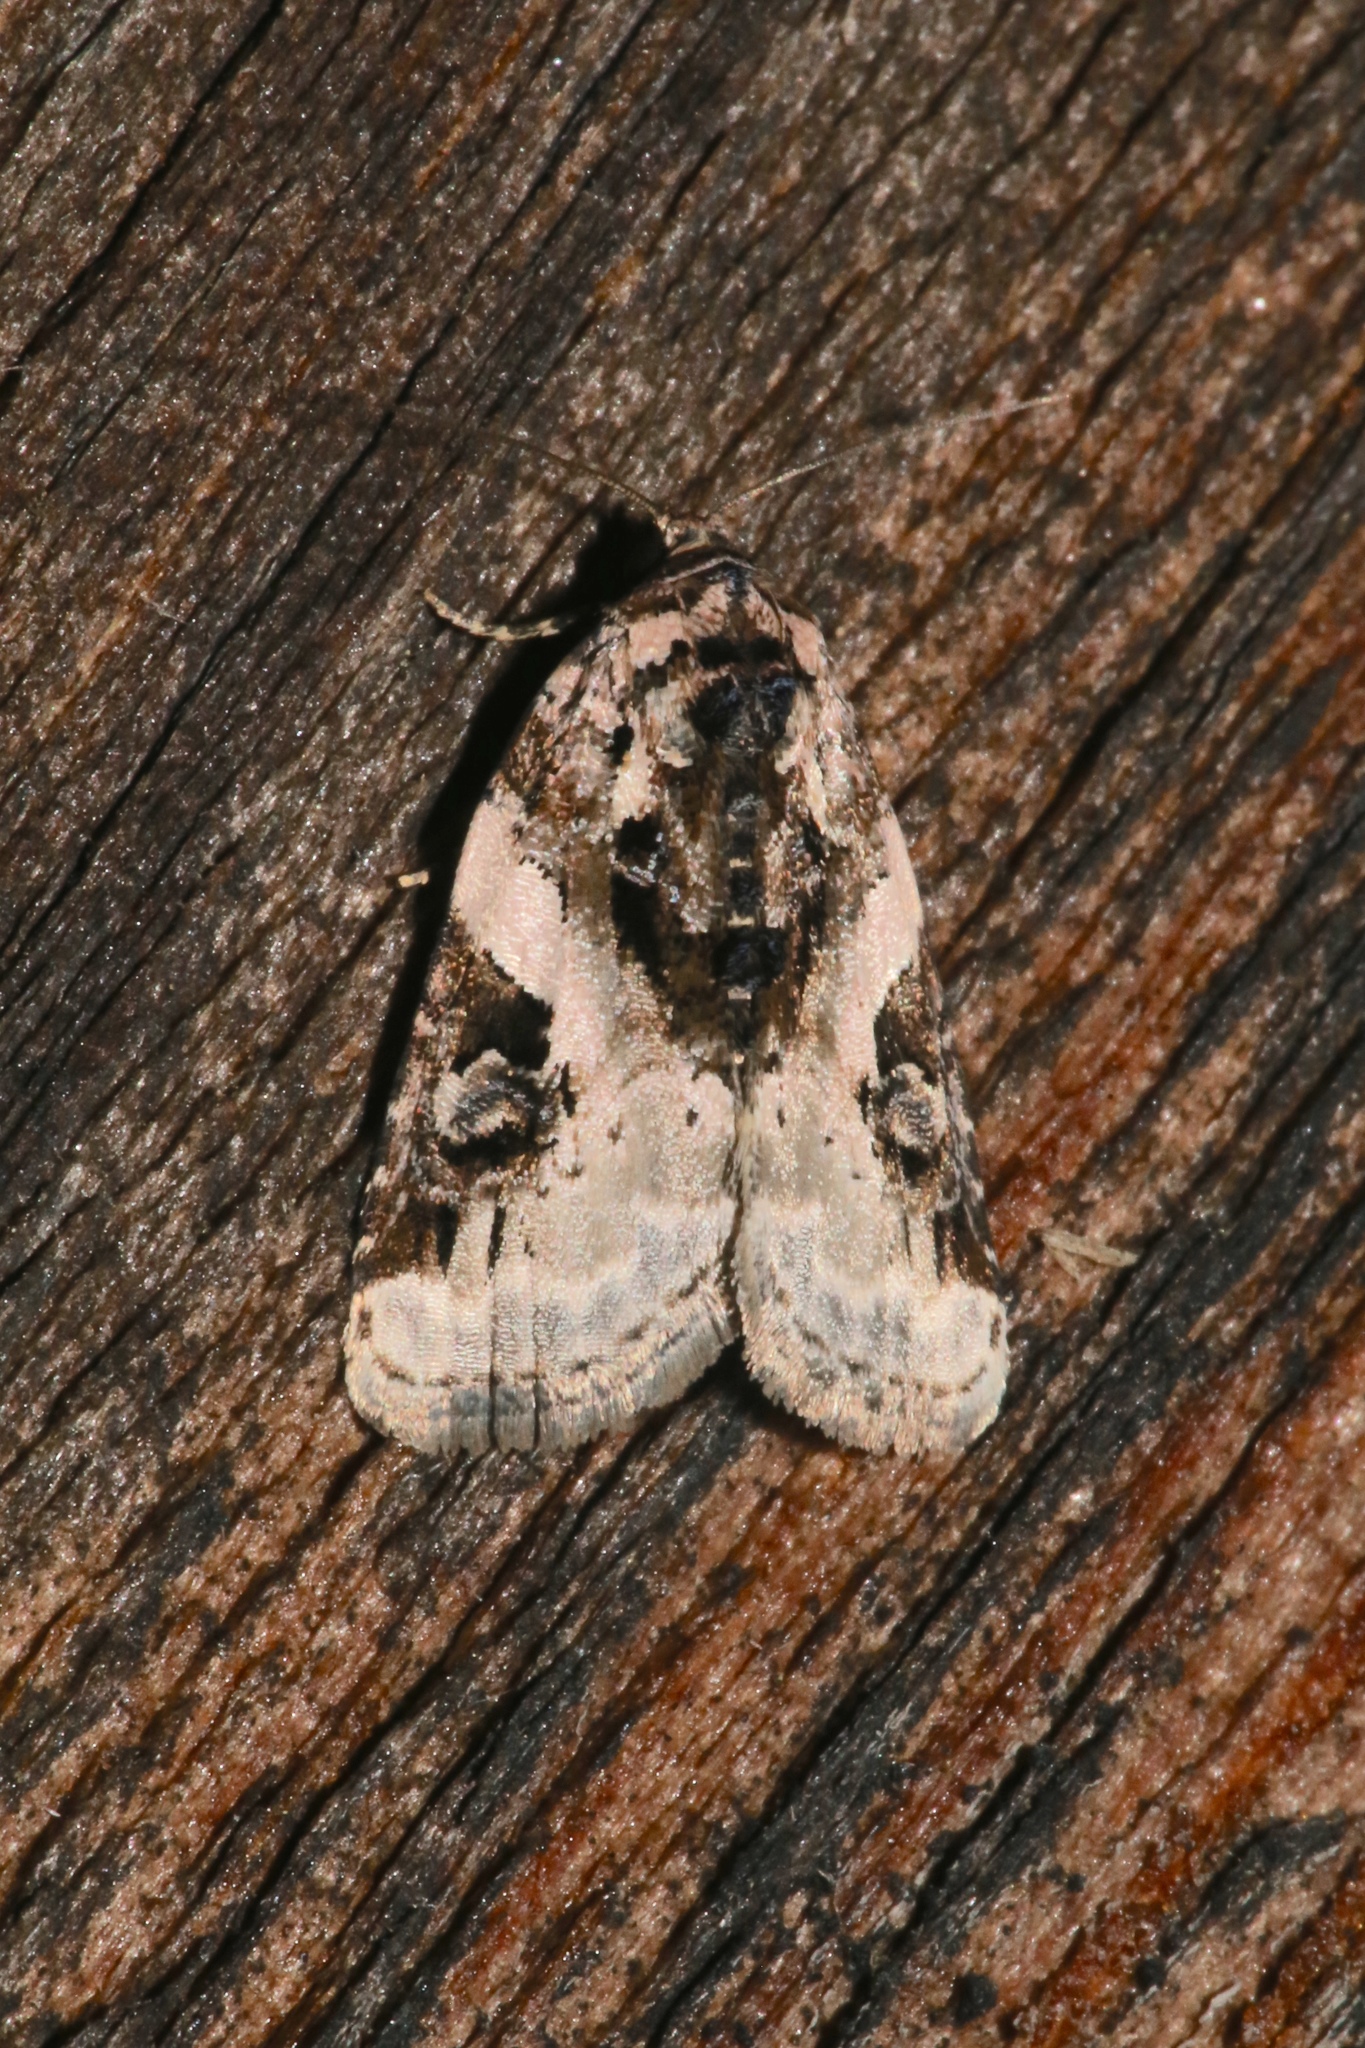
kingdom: Animalia
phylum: Arthropoda
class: Insecta
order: Lepidoptera
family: Noctuidae
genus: Pseudeustrotia
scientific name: Pseudeustrotia carneola
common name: Pink-barred lithacodia moth
